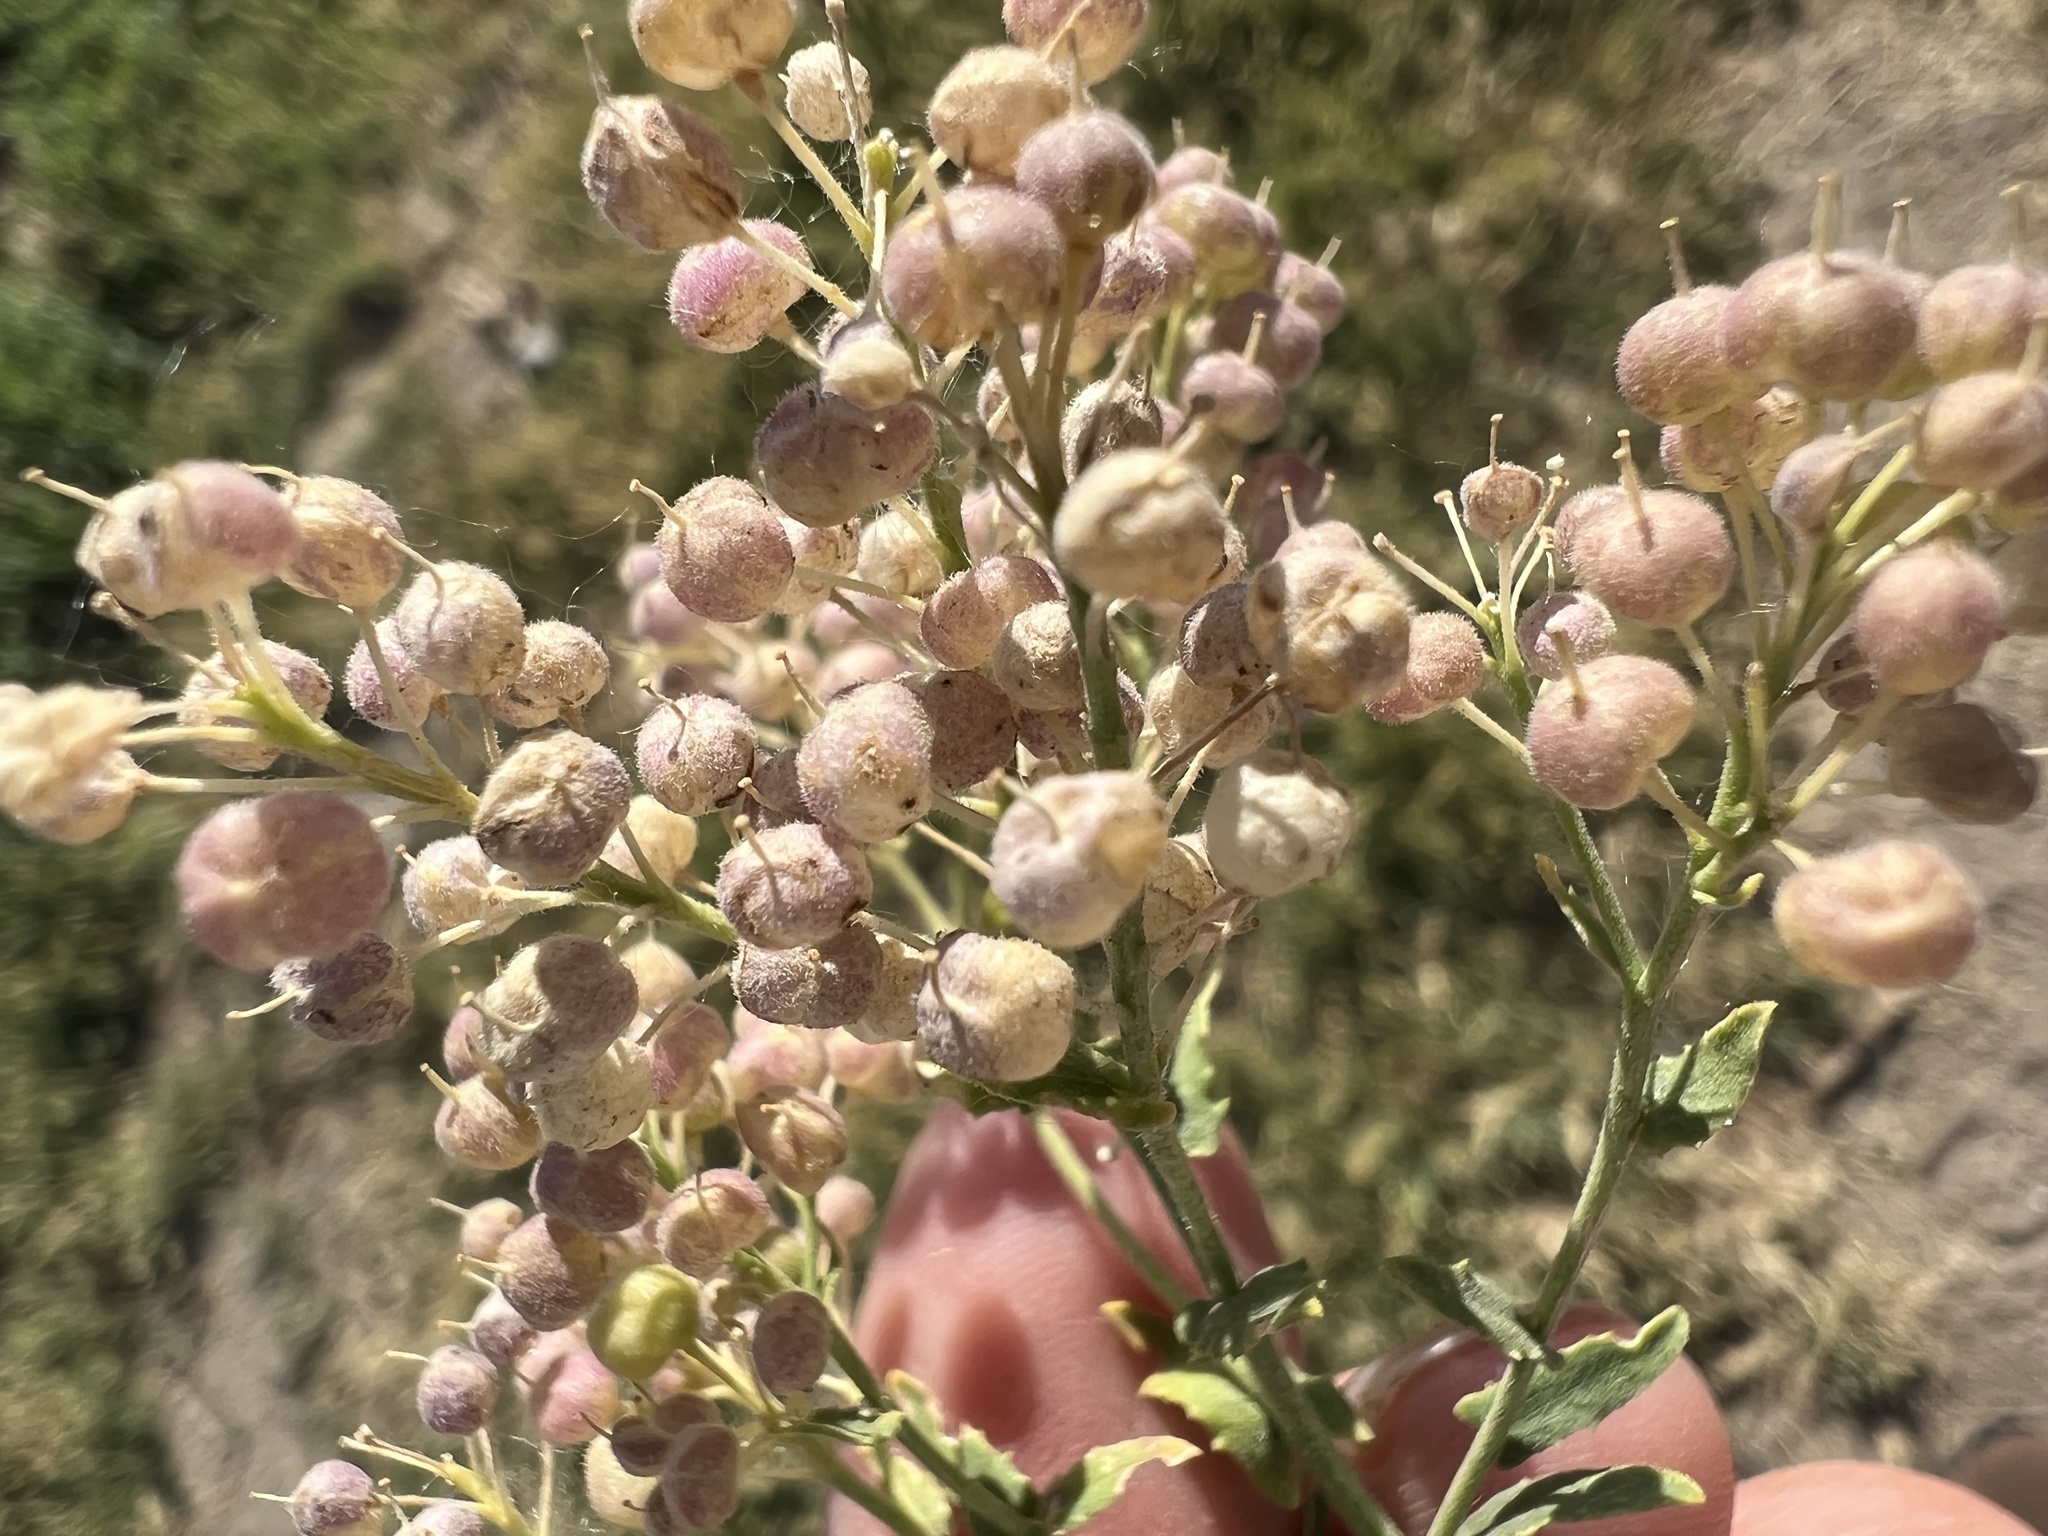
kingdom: Plantae
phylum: Tracheophyta
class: Magnoliopsida
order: Brassicales
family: Brassicaceae
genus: Lepidium
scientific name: Lepidium appelianum
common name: Hairy whitetop
